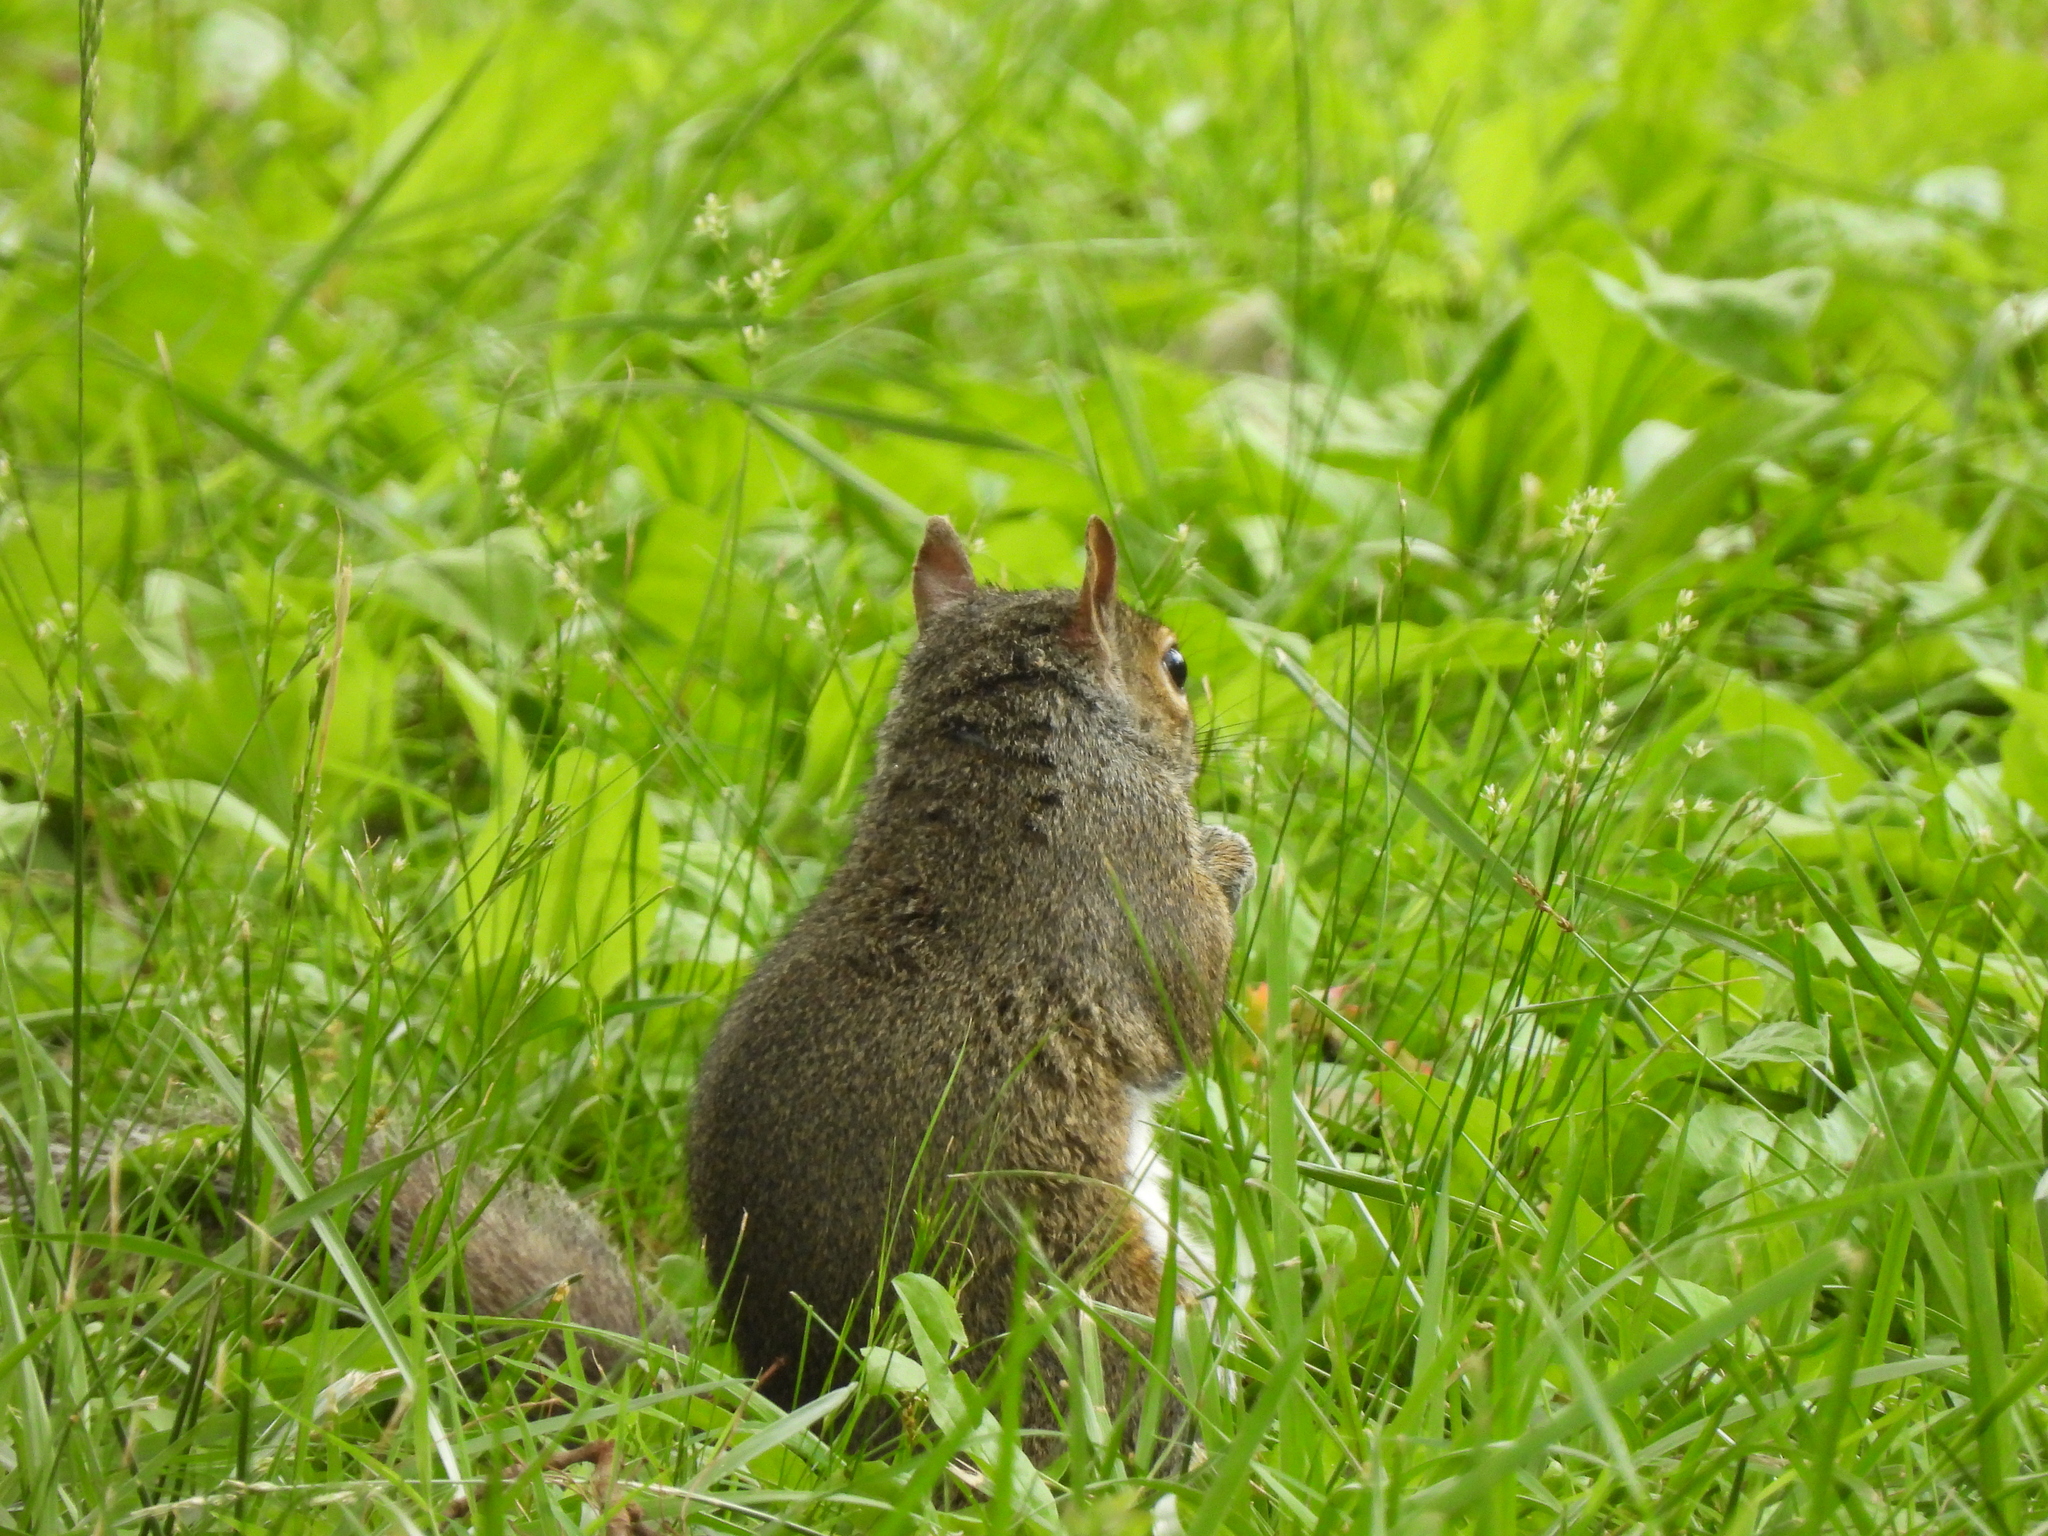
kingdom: Animalia
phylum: Chordata
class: Mammalia
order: Rodentia
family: Sciuridae
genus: Sciurus
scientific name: Sciurus carolinensis
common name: Eastern gray squirrel
